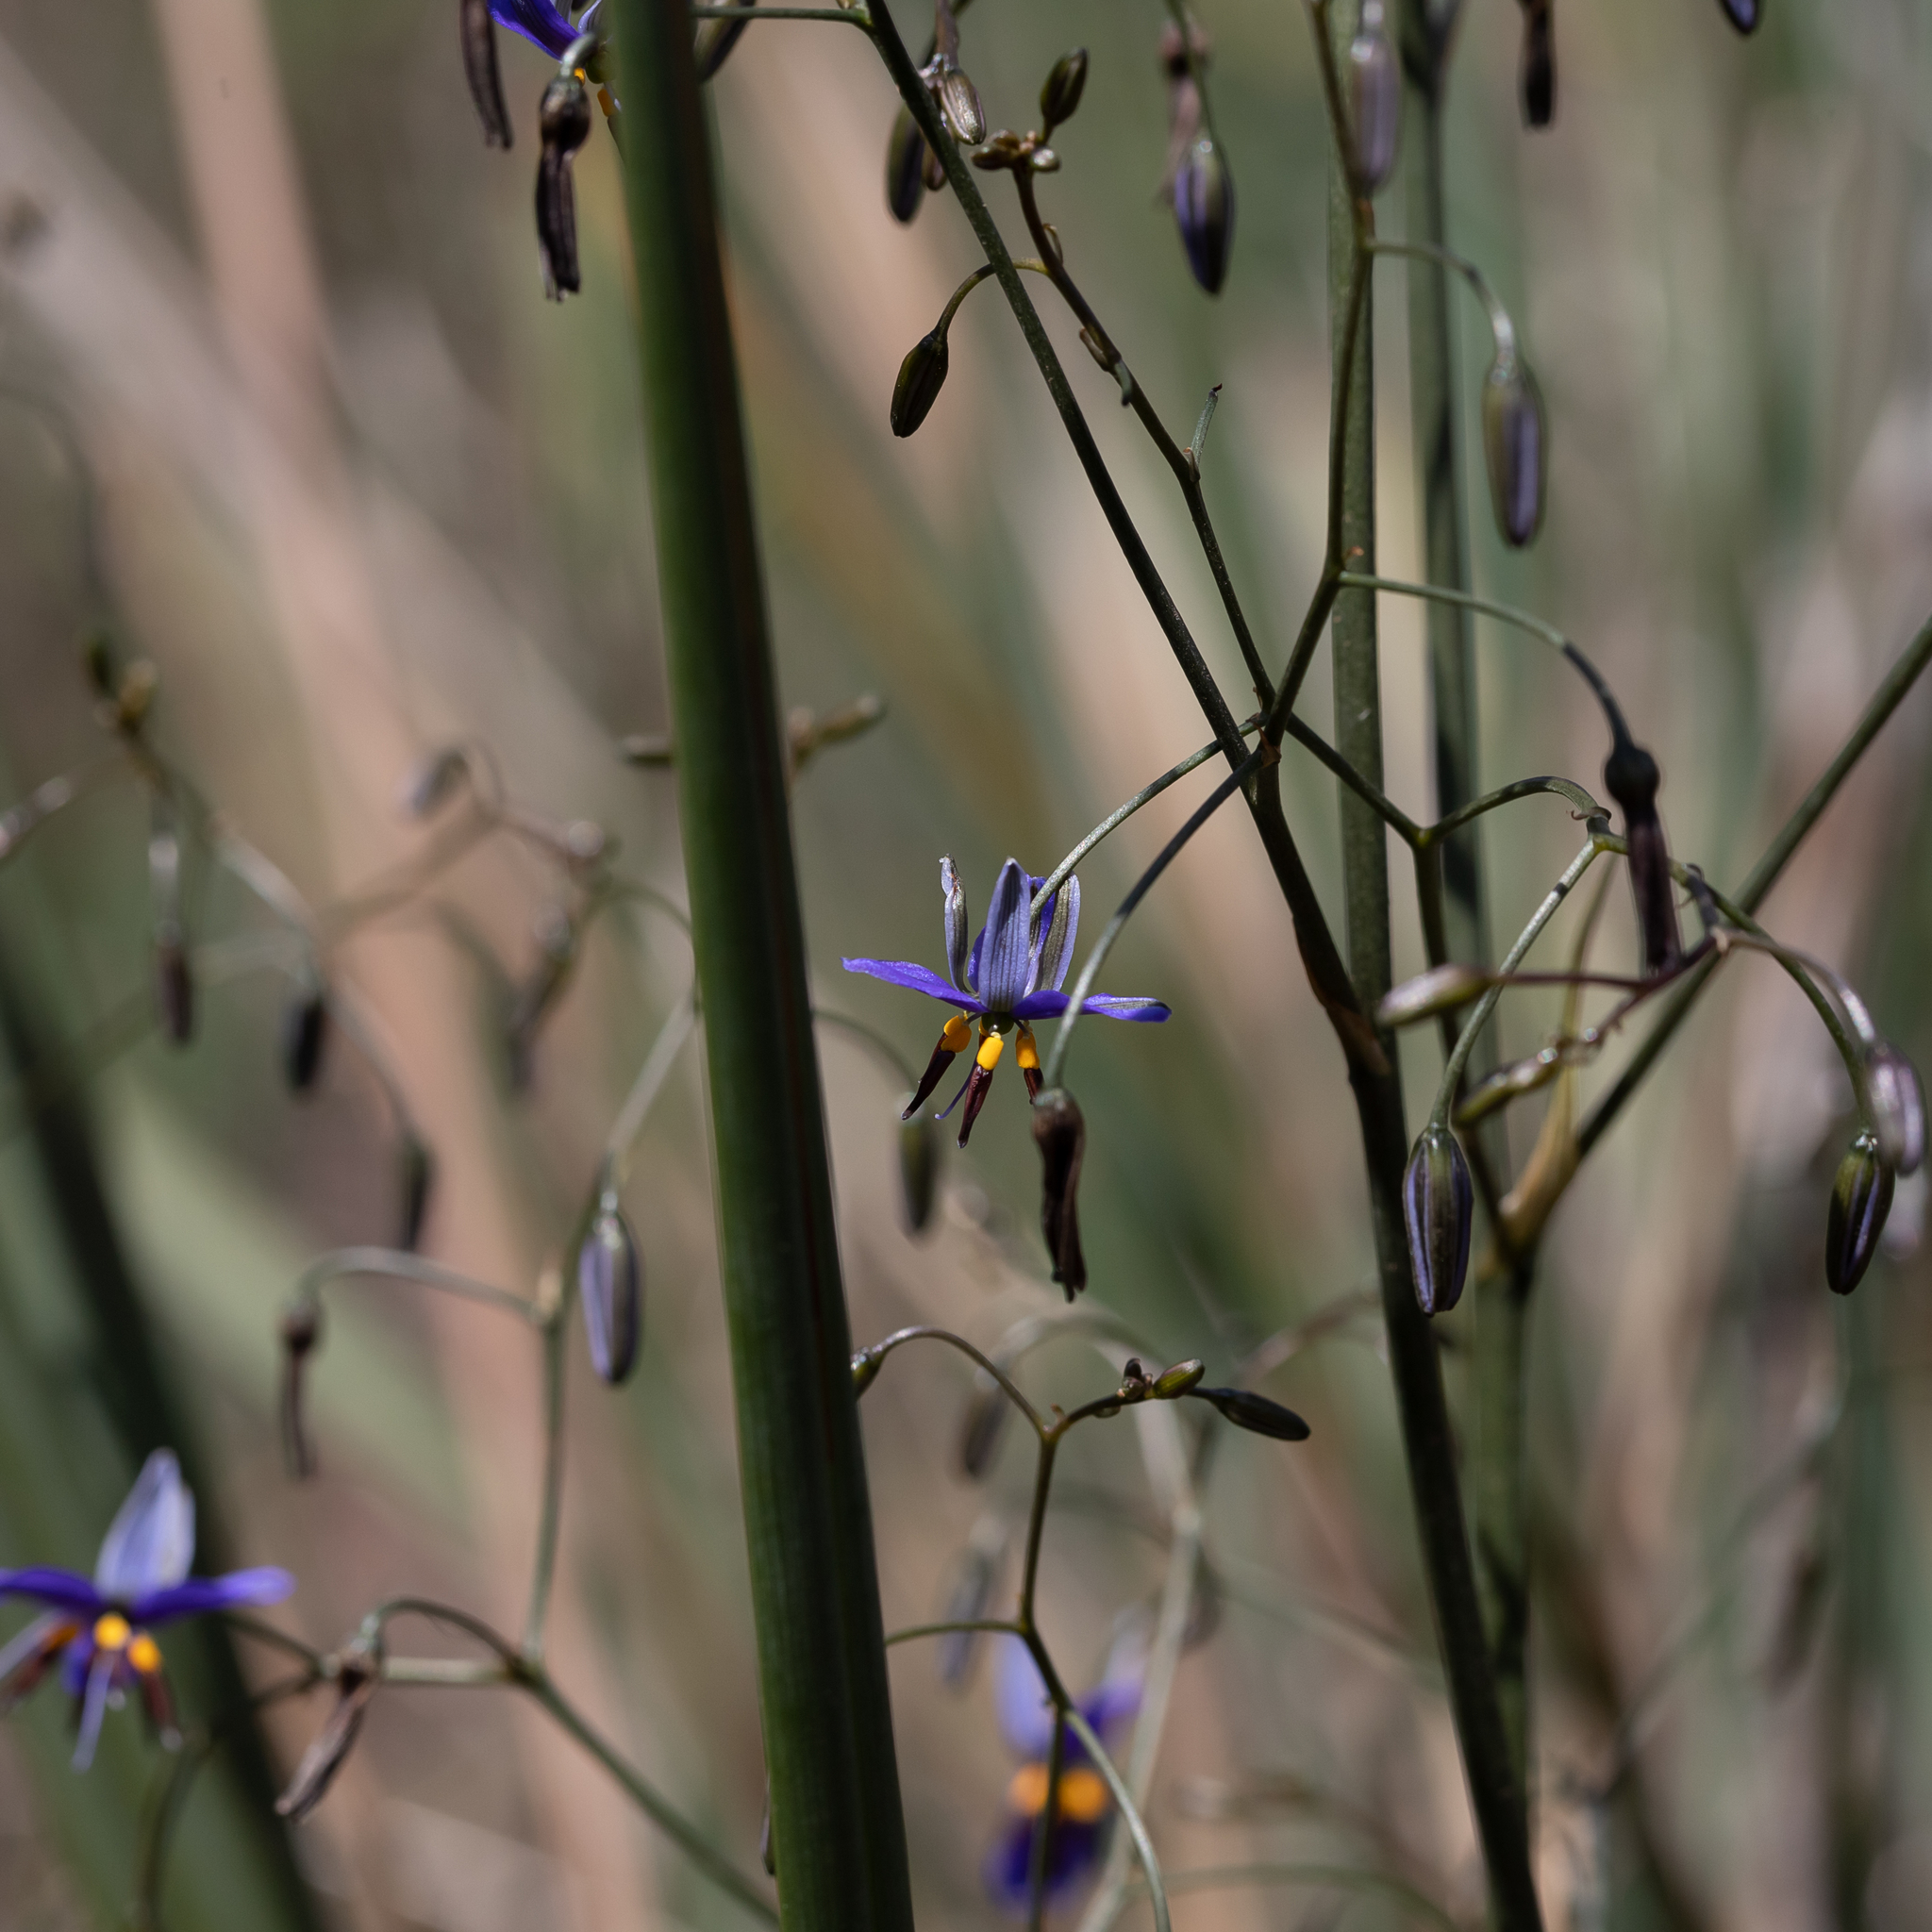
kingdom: Plantae
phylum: Tracheophyta
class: Liliopsida
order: Asparagales
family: Asphodelaceae
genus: Dianella
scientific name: Dianella revoluta
